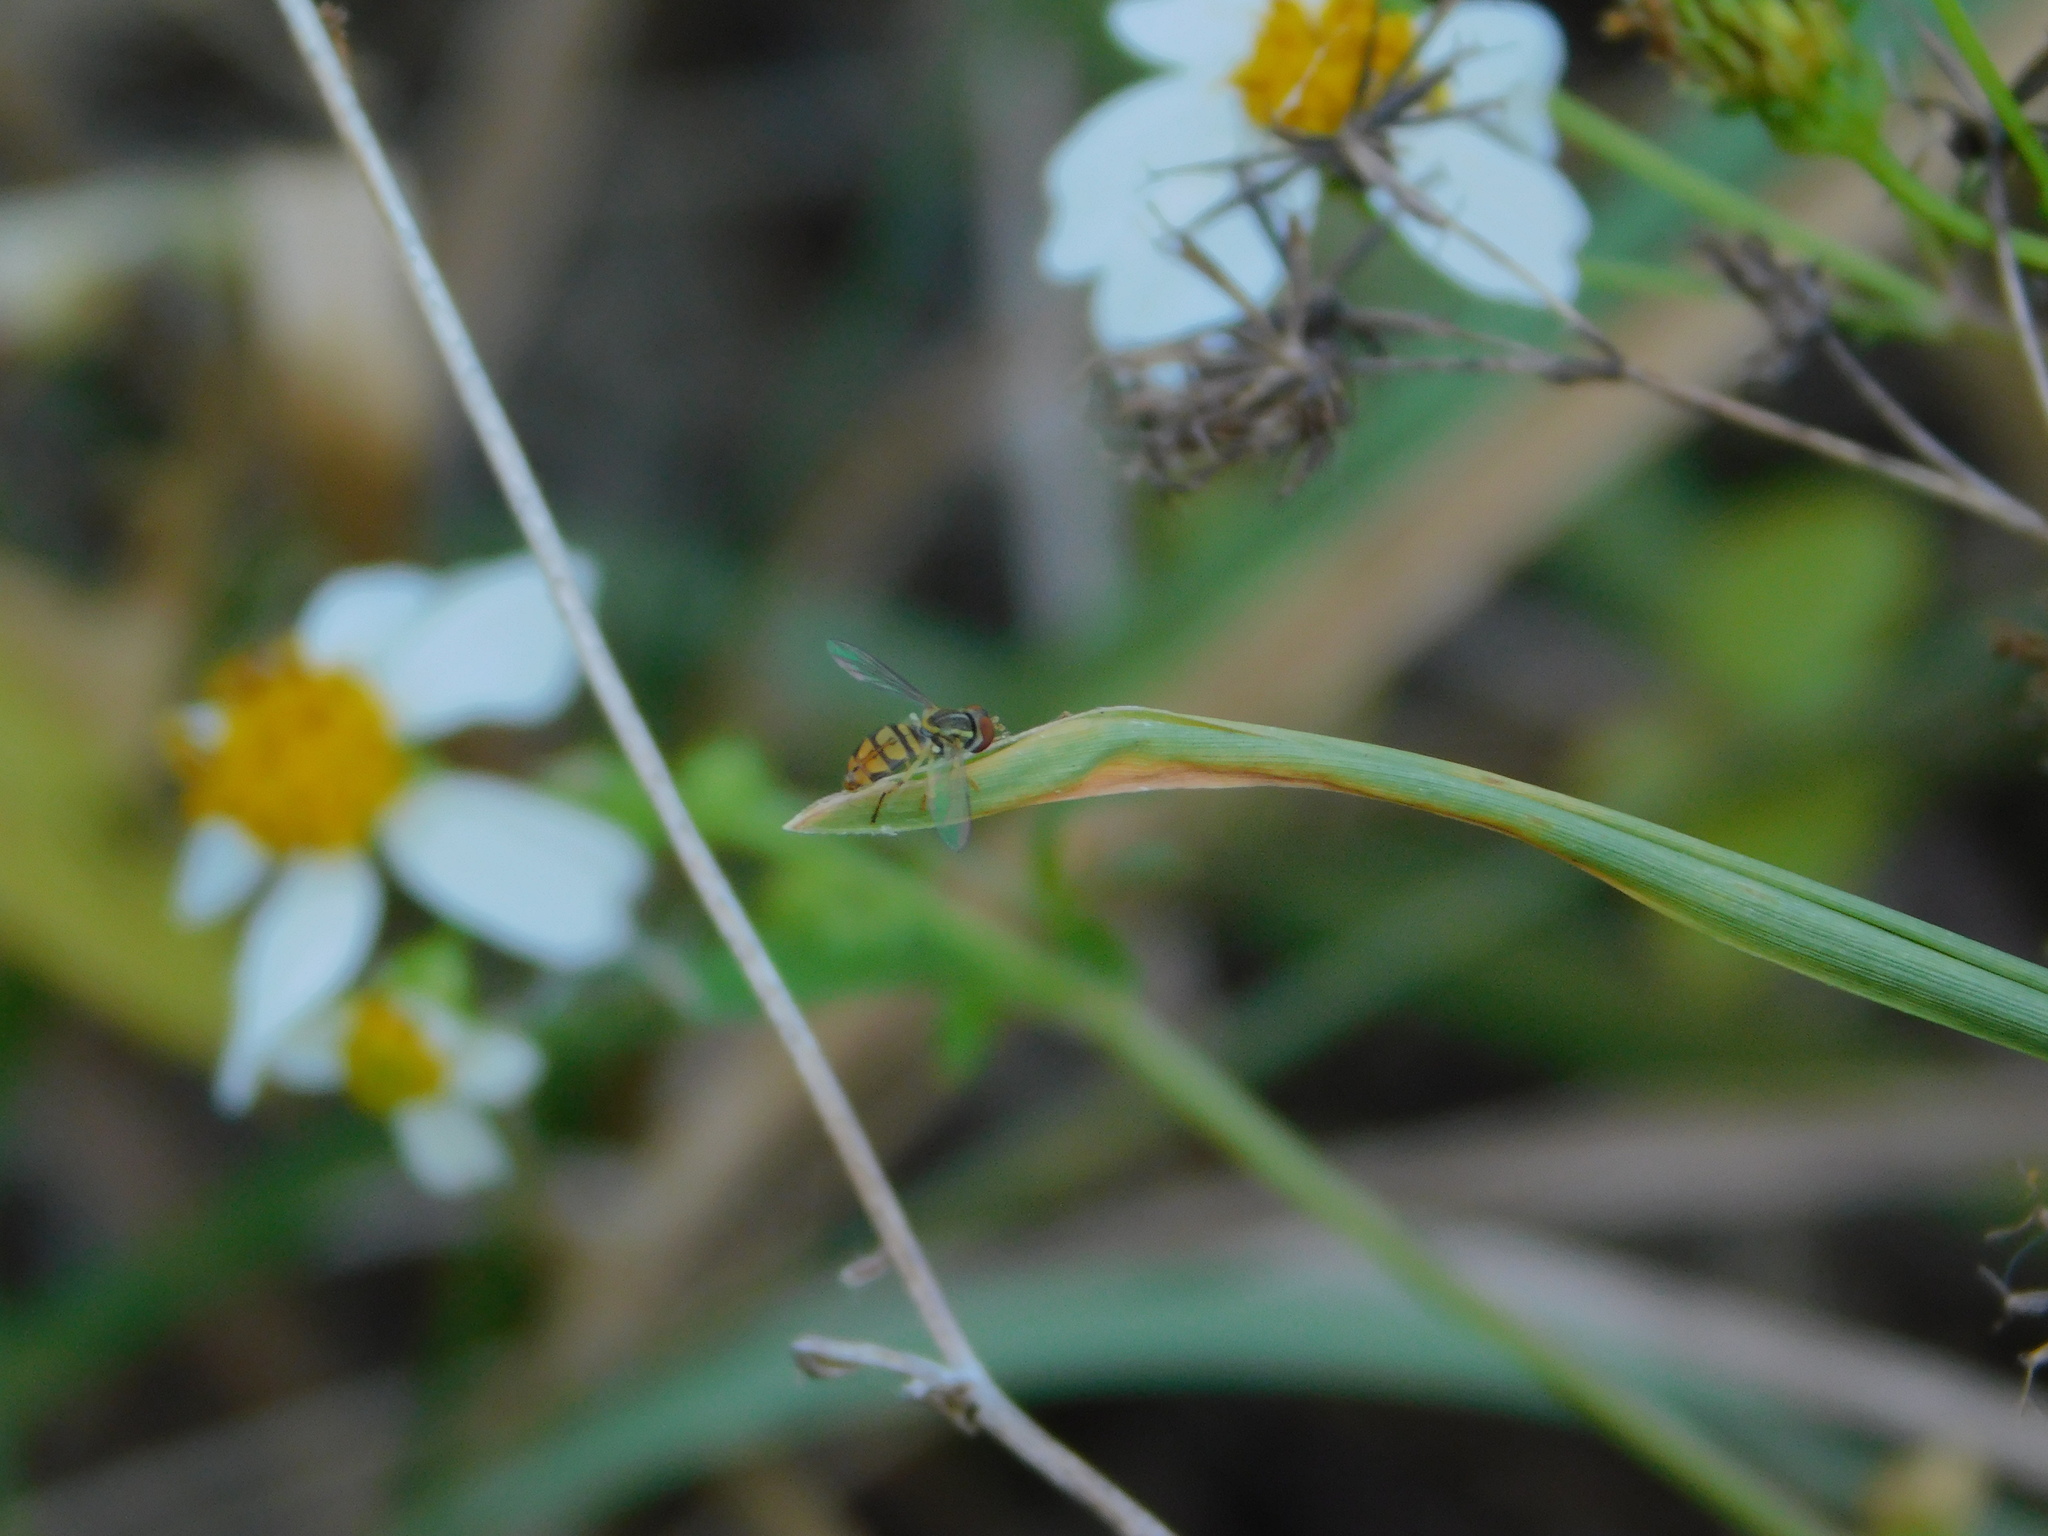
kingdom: Animalia
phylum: Arthropoda
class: Insecta
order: Diptera
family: Syrphidae
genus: Toxomerus
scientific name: Toxomerus floralis
